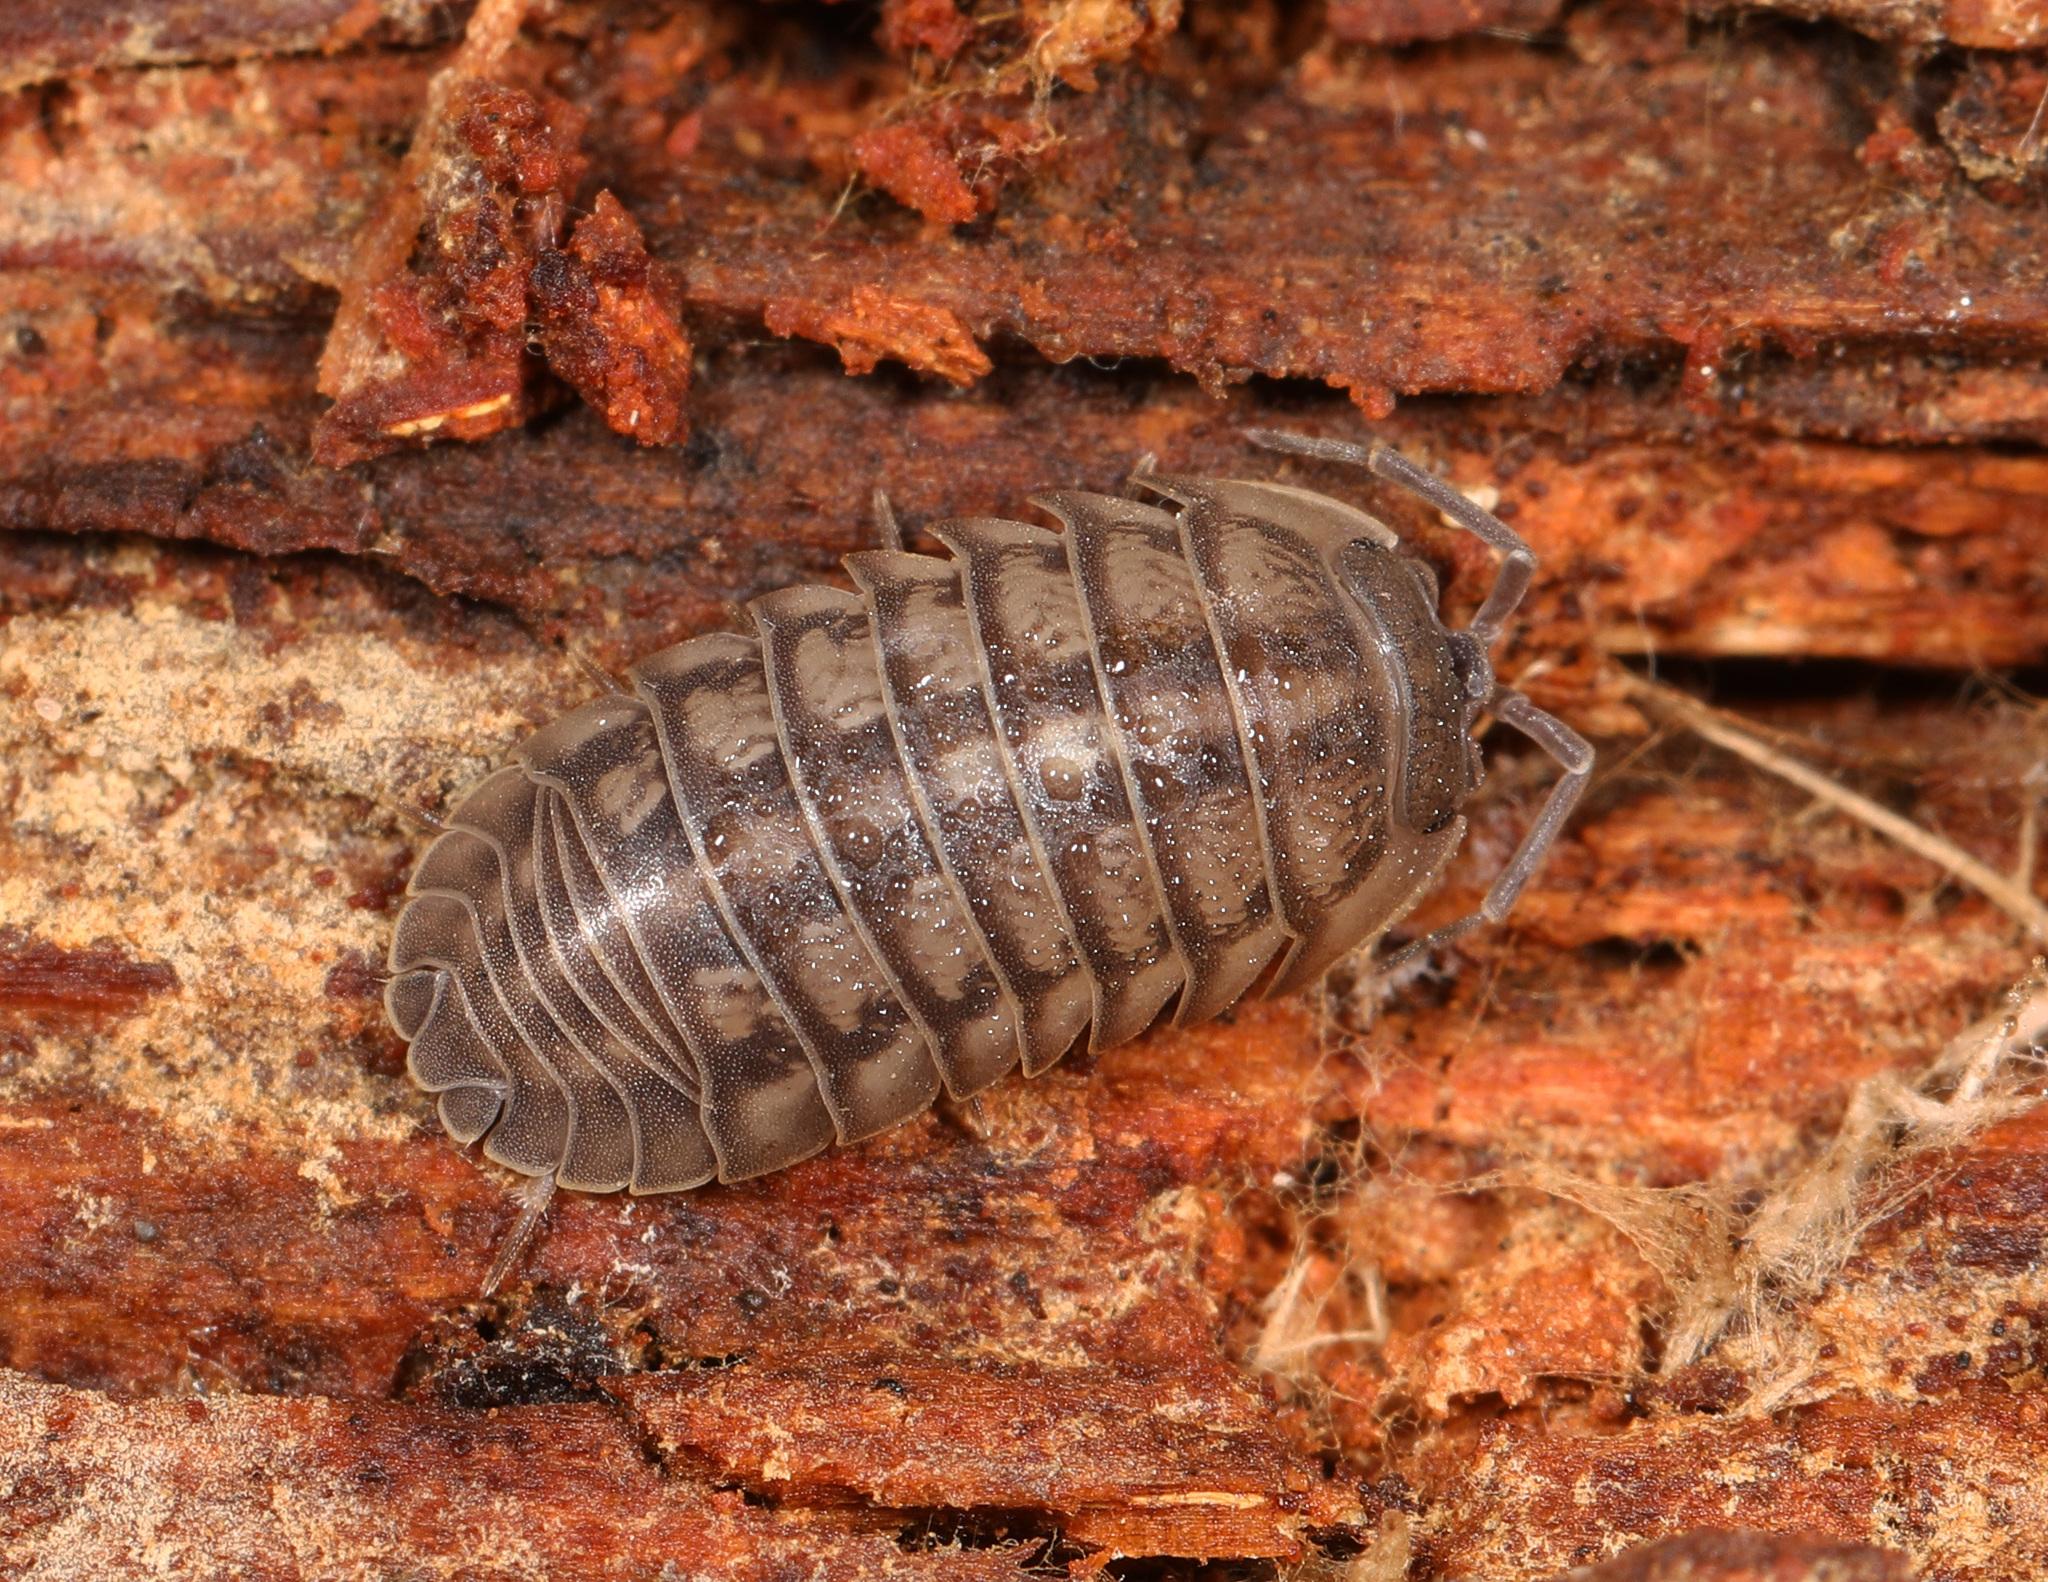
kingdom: Animalia
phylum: Arthropoda
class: Malacostraca
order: Isopoda
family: Armadillidiidae
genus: Armadillidium
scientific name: Armadillidium nasatum
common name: Isopod
